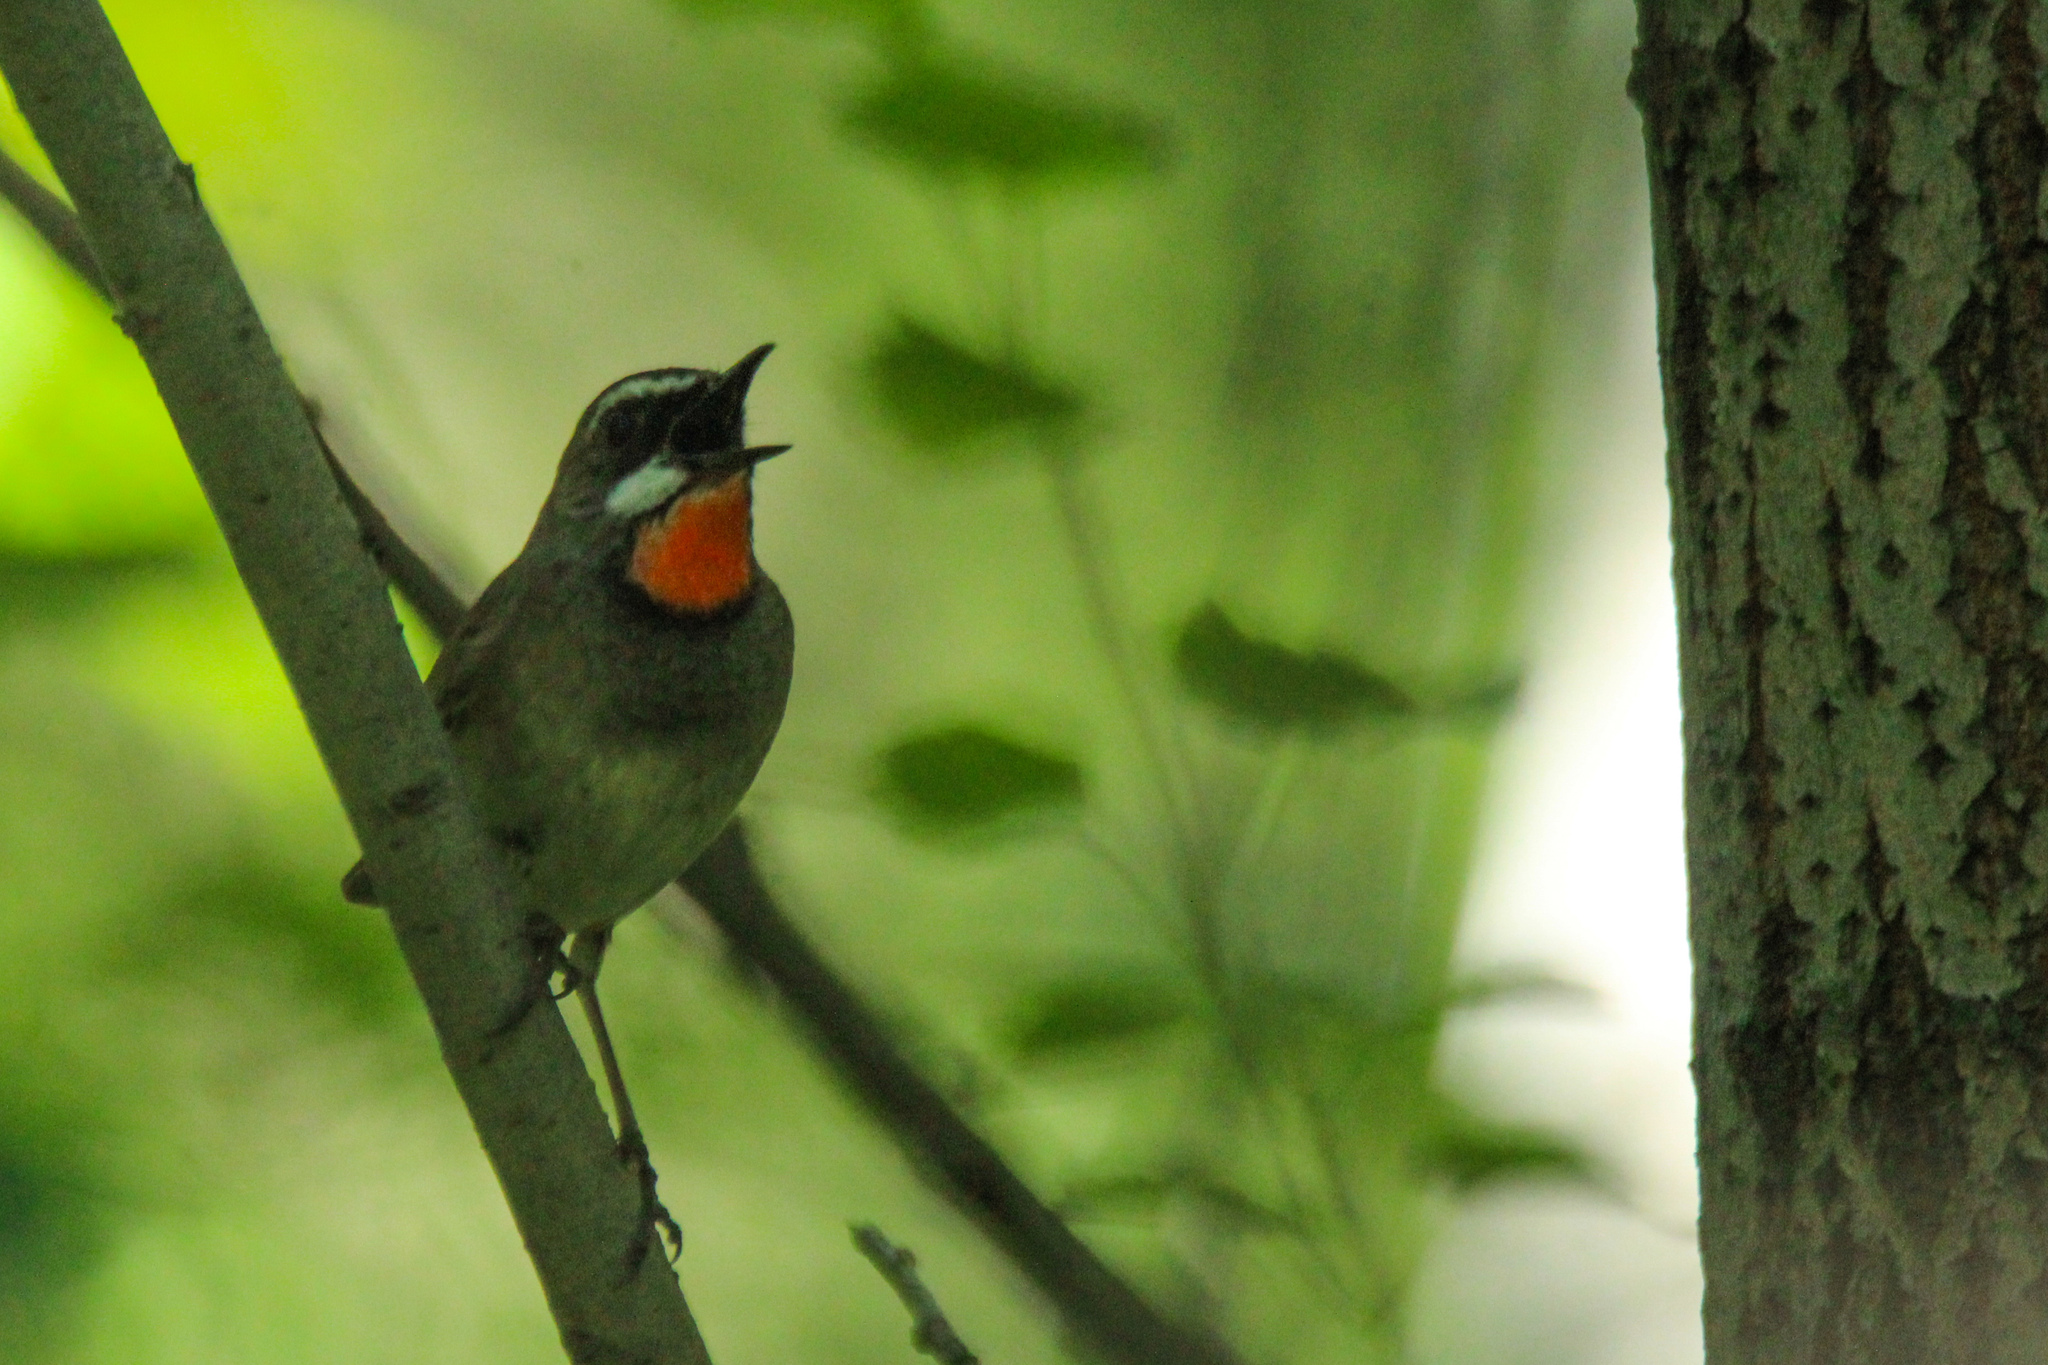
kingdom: Animalia
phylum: Chordata
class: Aves
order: Passeriformes
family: Muscicapidae
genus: Luscinia
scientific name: Luscinia calliope
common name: Siberian rubythroat
